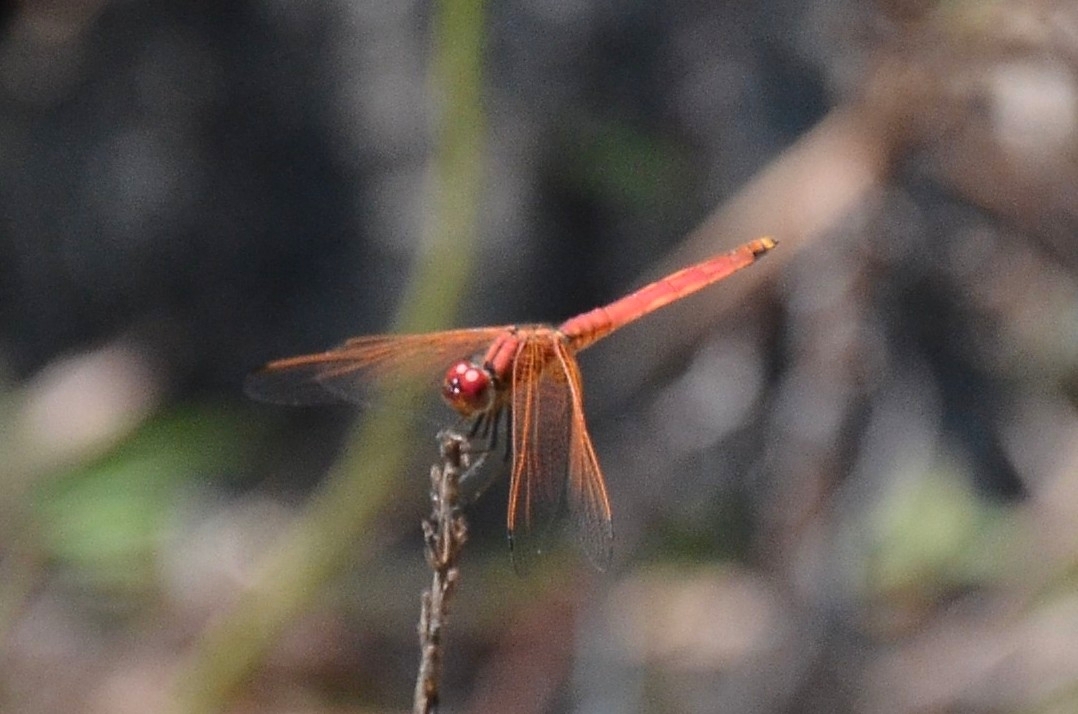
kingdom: Animalia
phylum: Arthropoda
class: Insecta
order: Odonata
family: Libellulidae
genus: Trithemis
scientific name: Trithemis aurora
